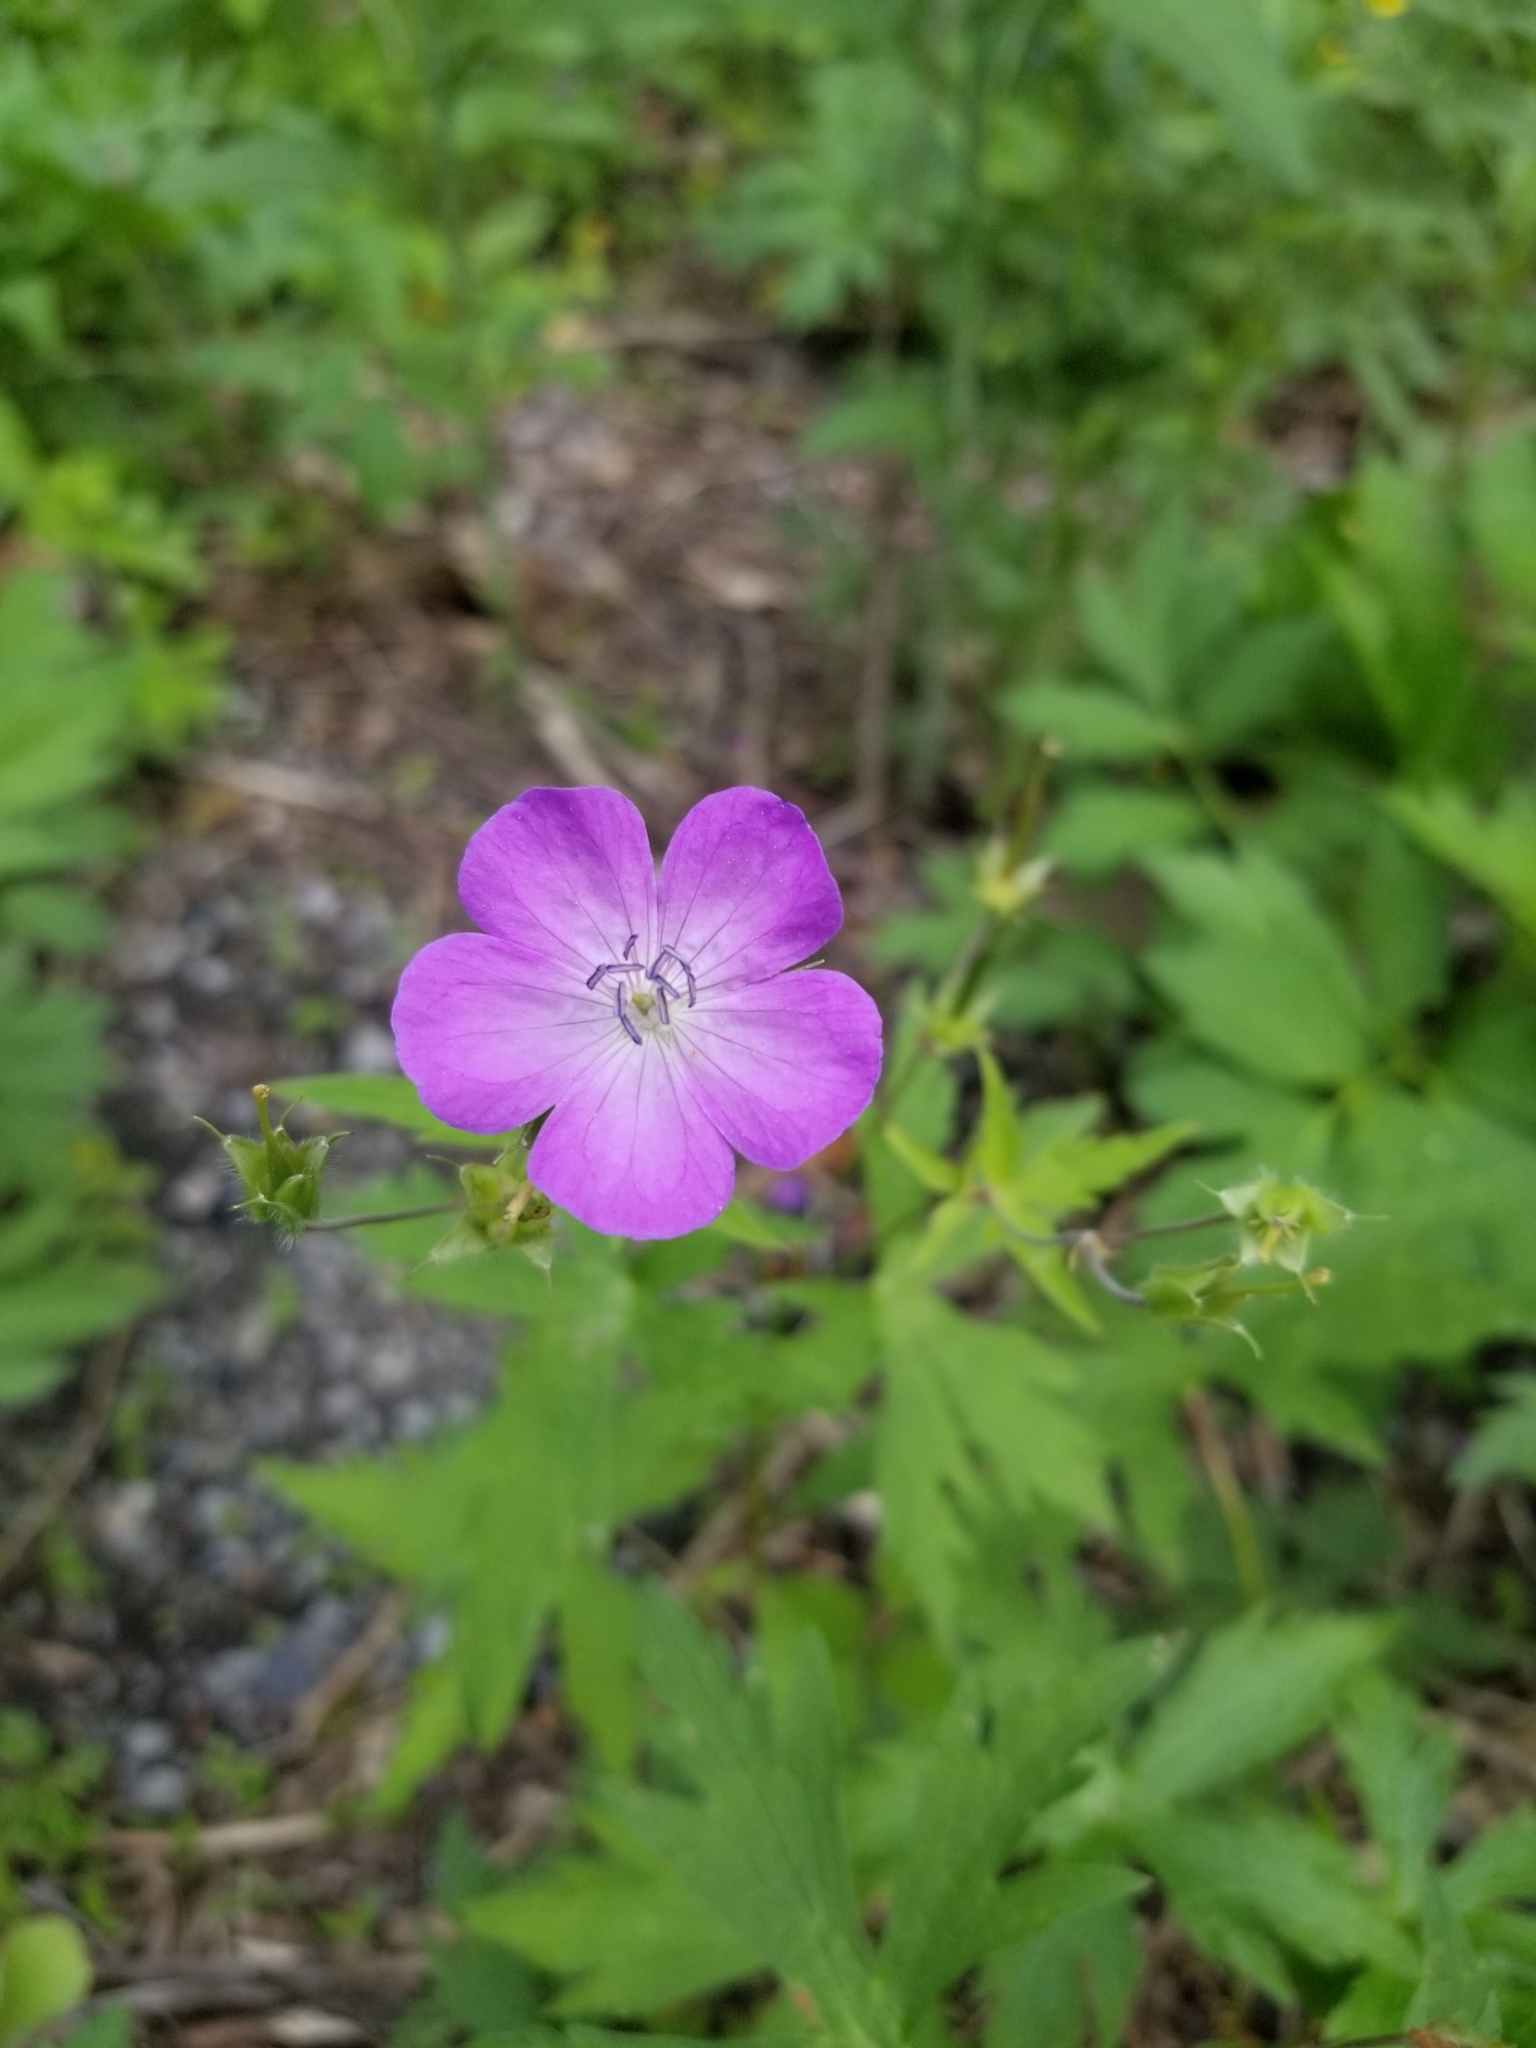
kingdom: Plantae
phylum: Tracheophyta
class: Magnoliopsida
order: Geraniales
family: Geraniaceae
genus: Geranium
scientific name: Geranium maculatum
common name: Spotted geranium
